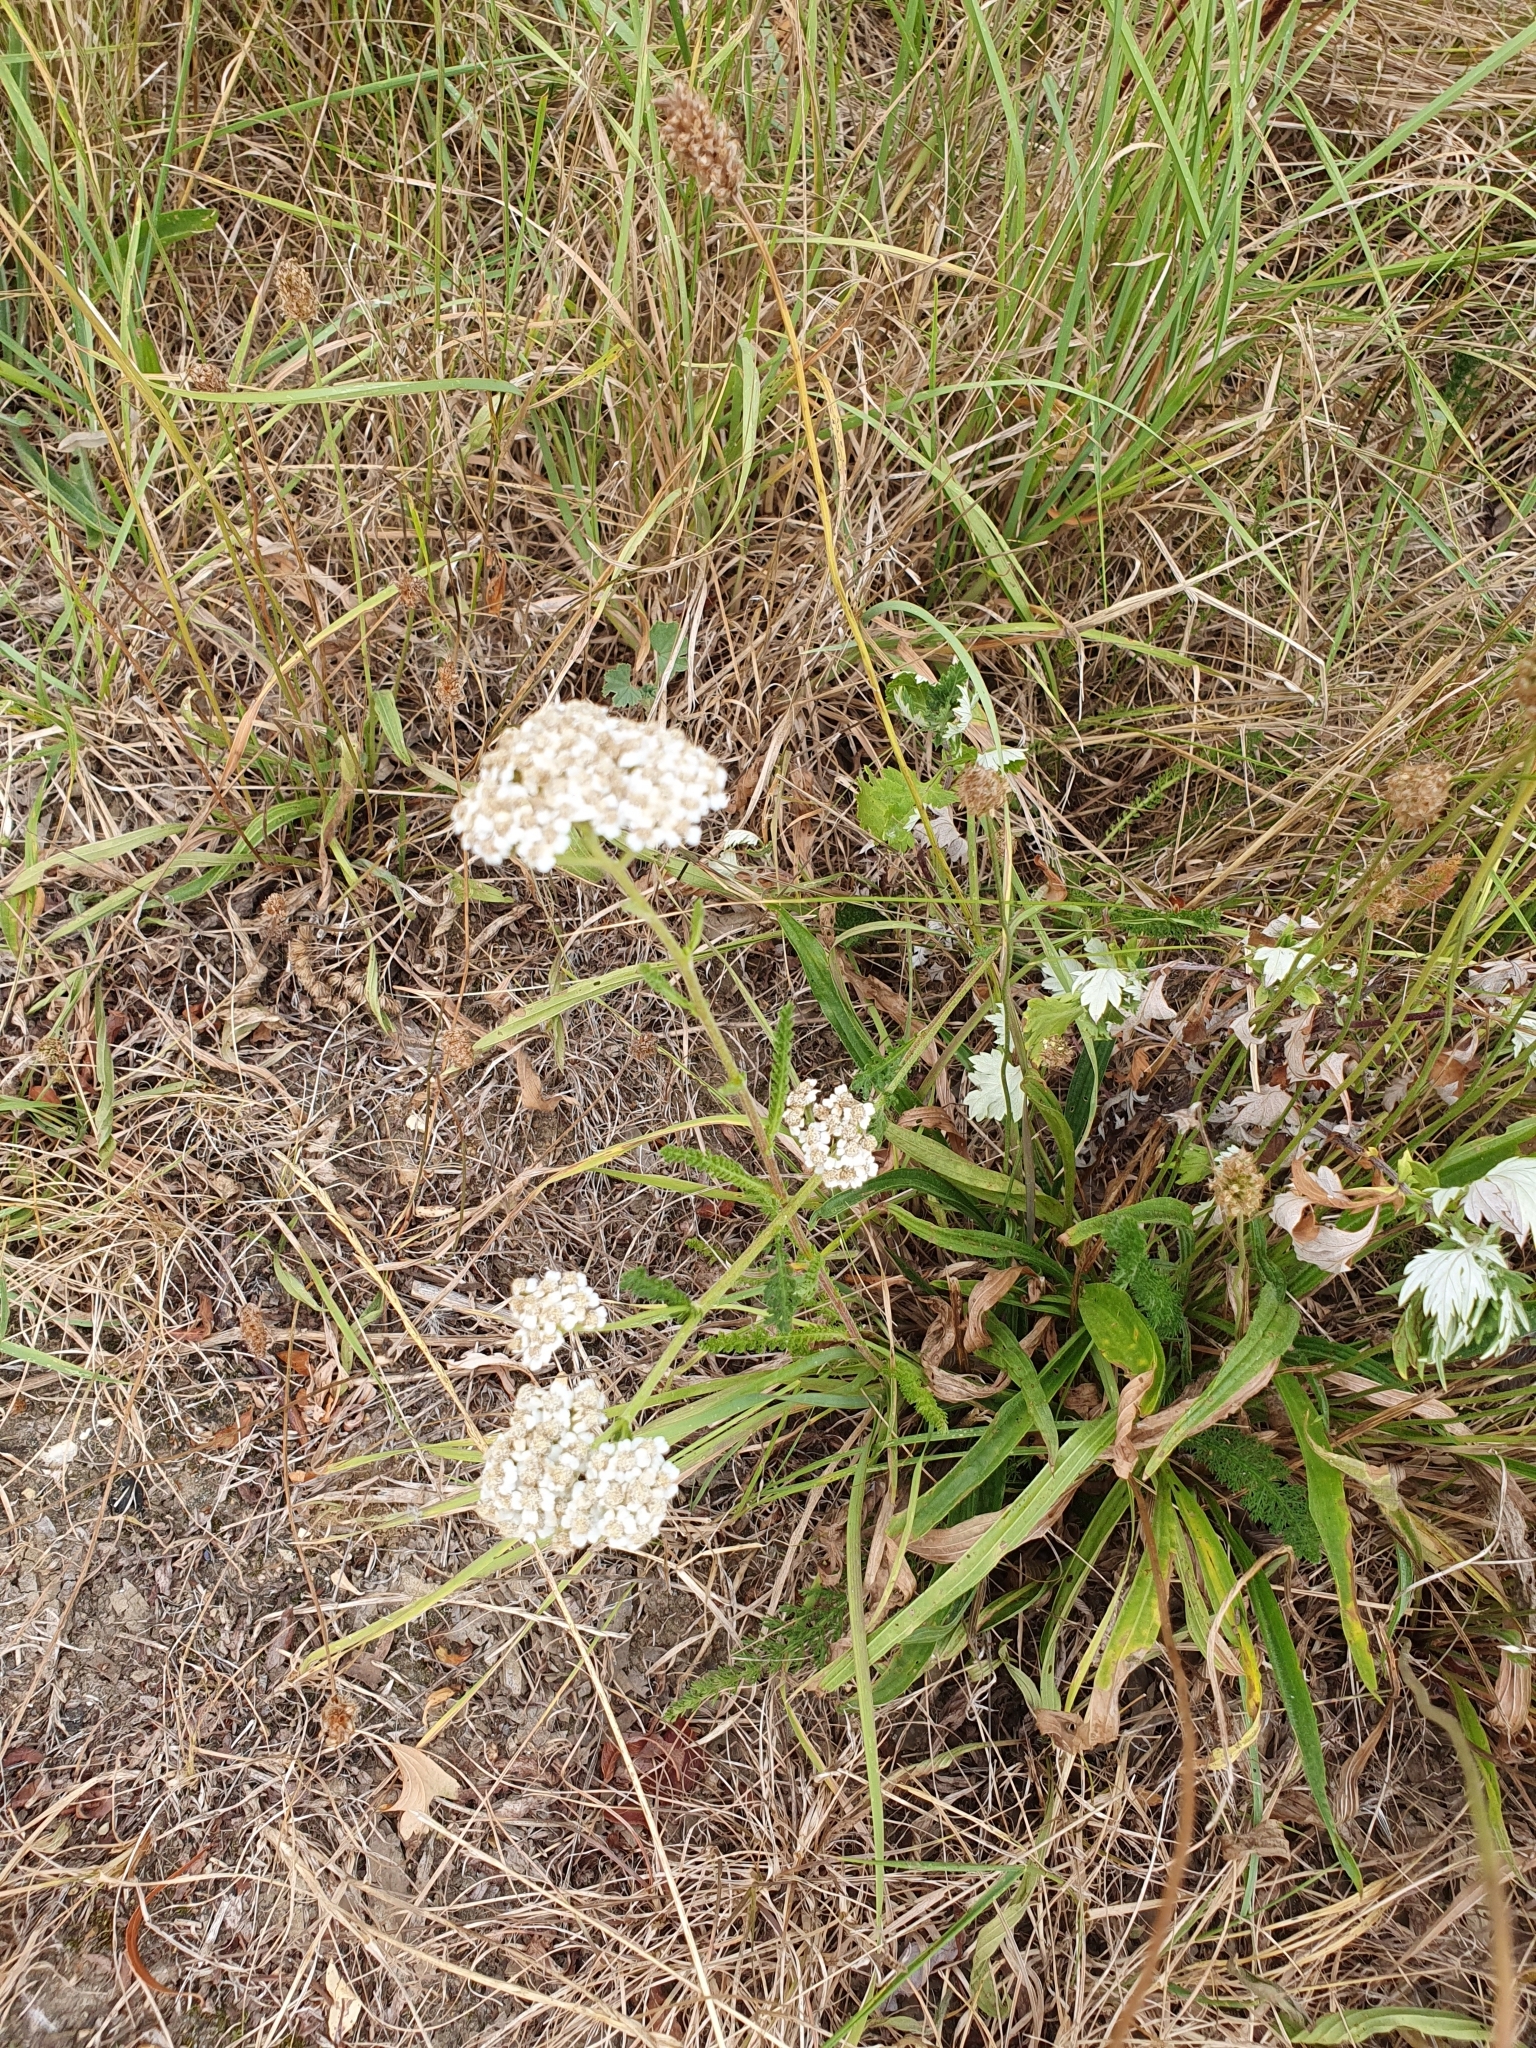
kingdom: Plantae
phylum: Tracheophyta
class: Magnoliopsida
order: Asterales
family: Asteraceae
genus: Achillea
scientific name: Achillea millefolium
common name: Yarrow
